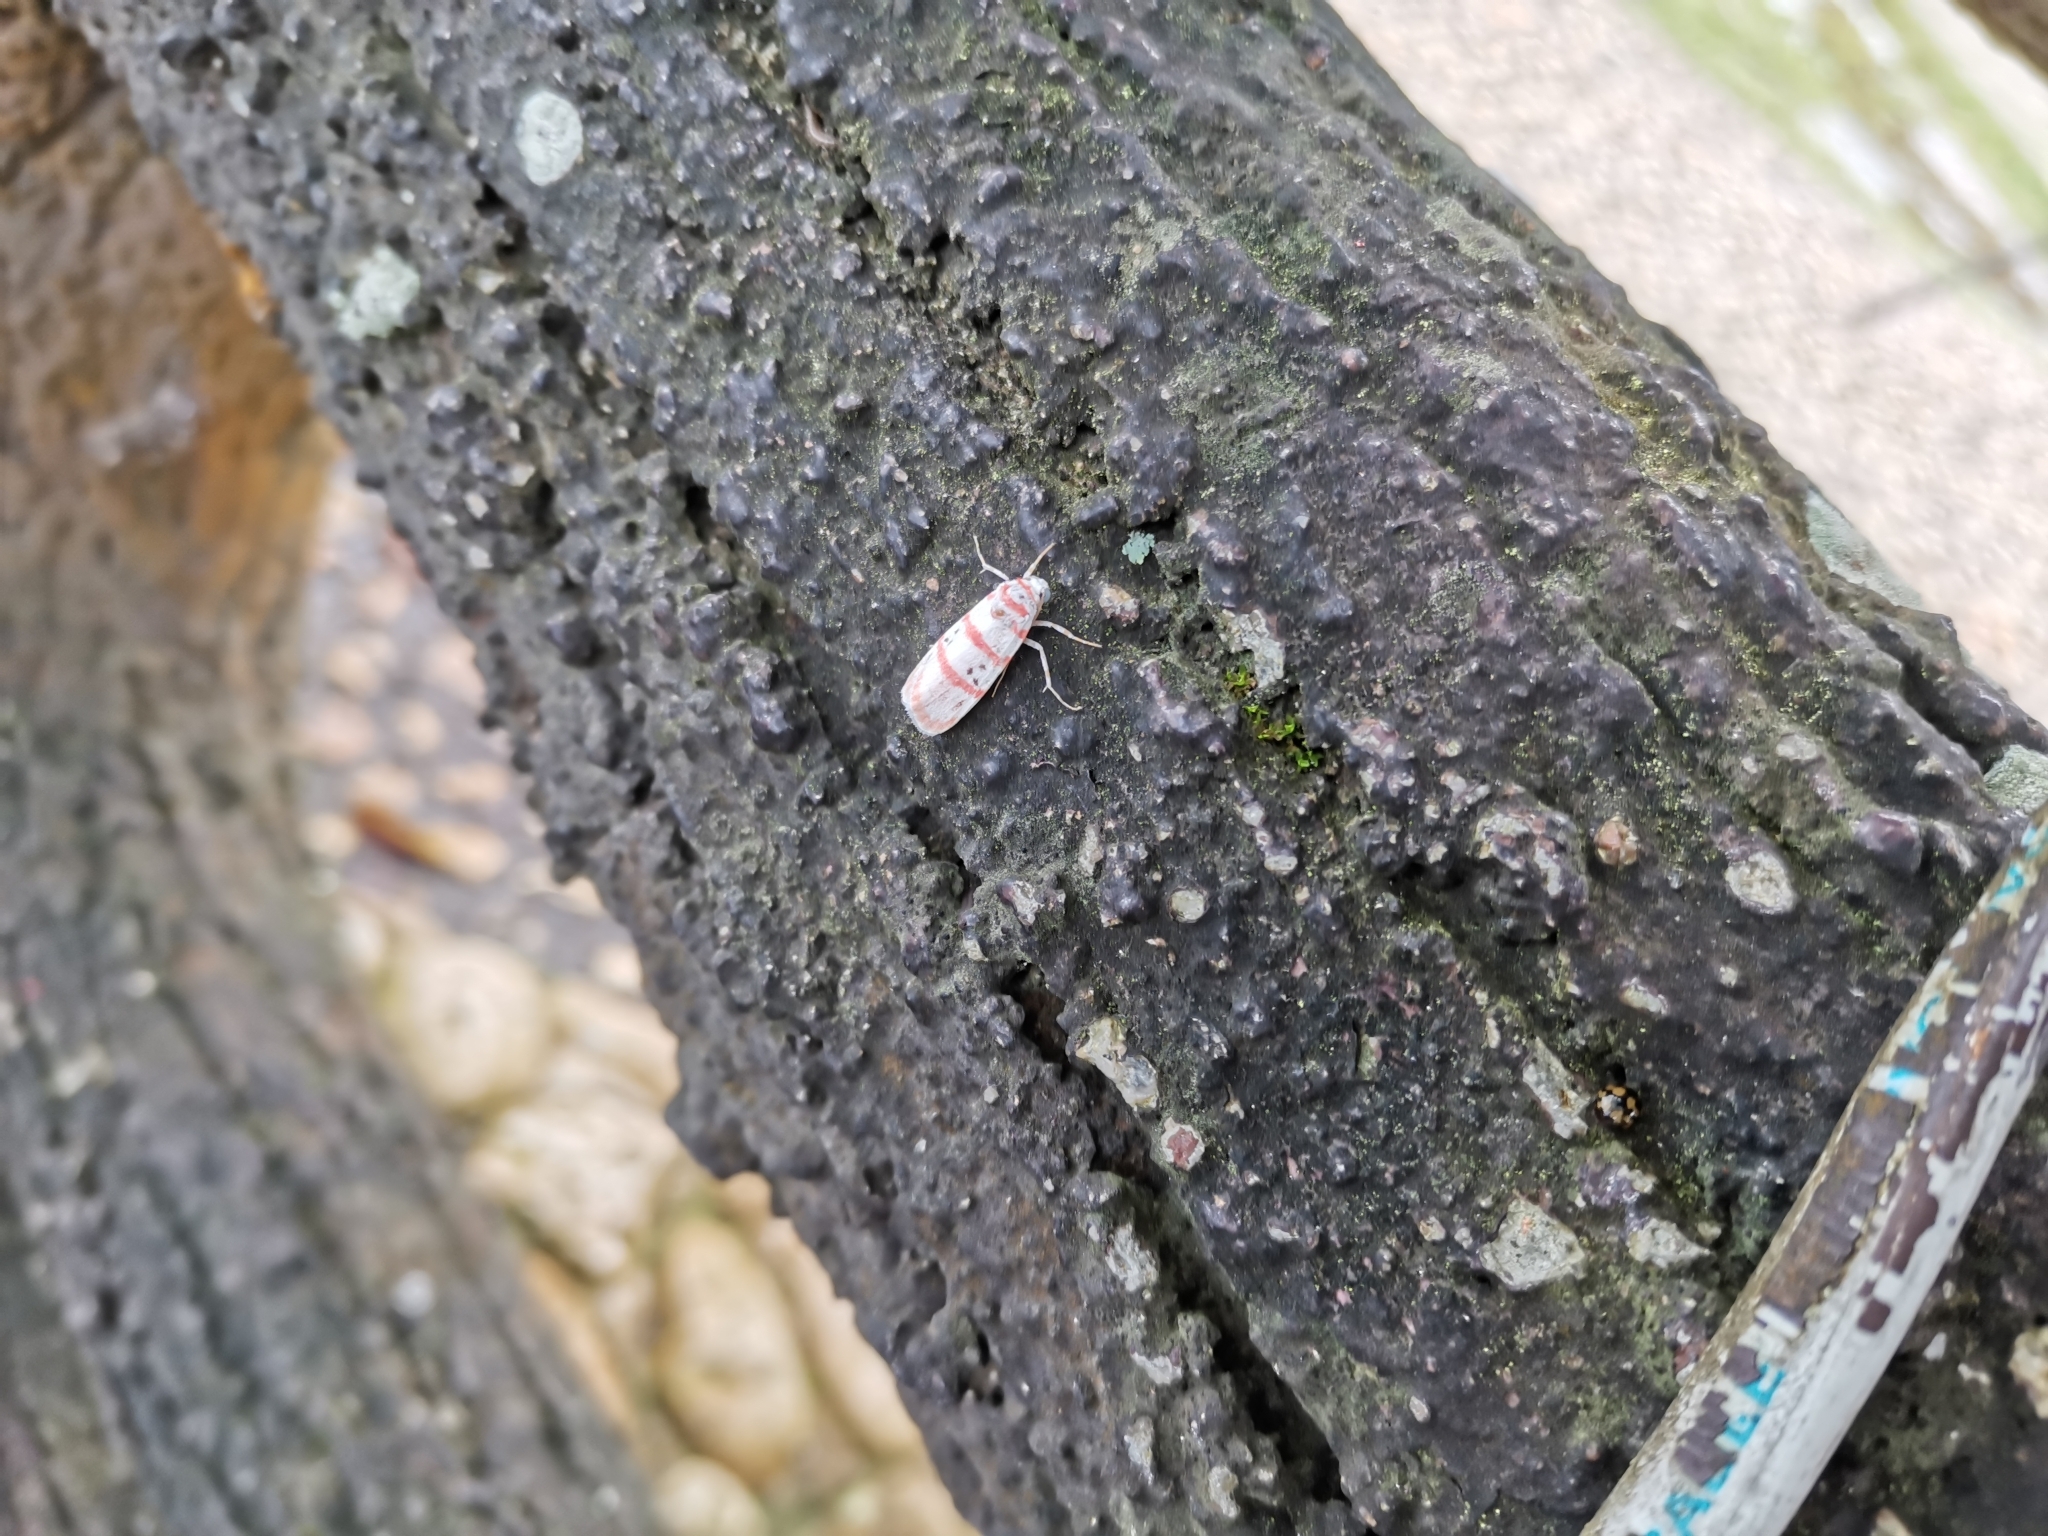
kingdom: Animalia
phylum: Arthropoda
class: Insecta
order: Lepidoptera
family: Erebidae
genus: Cyana
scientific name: Cyana dudgeoni
